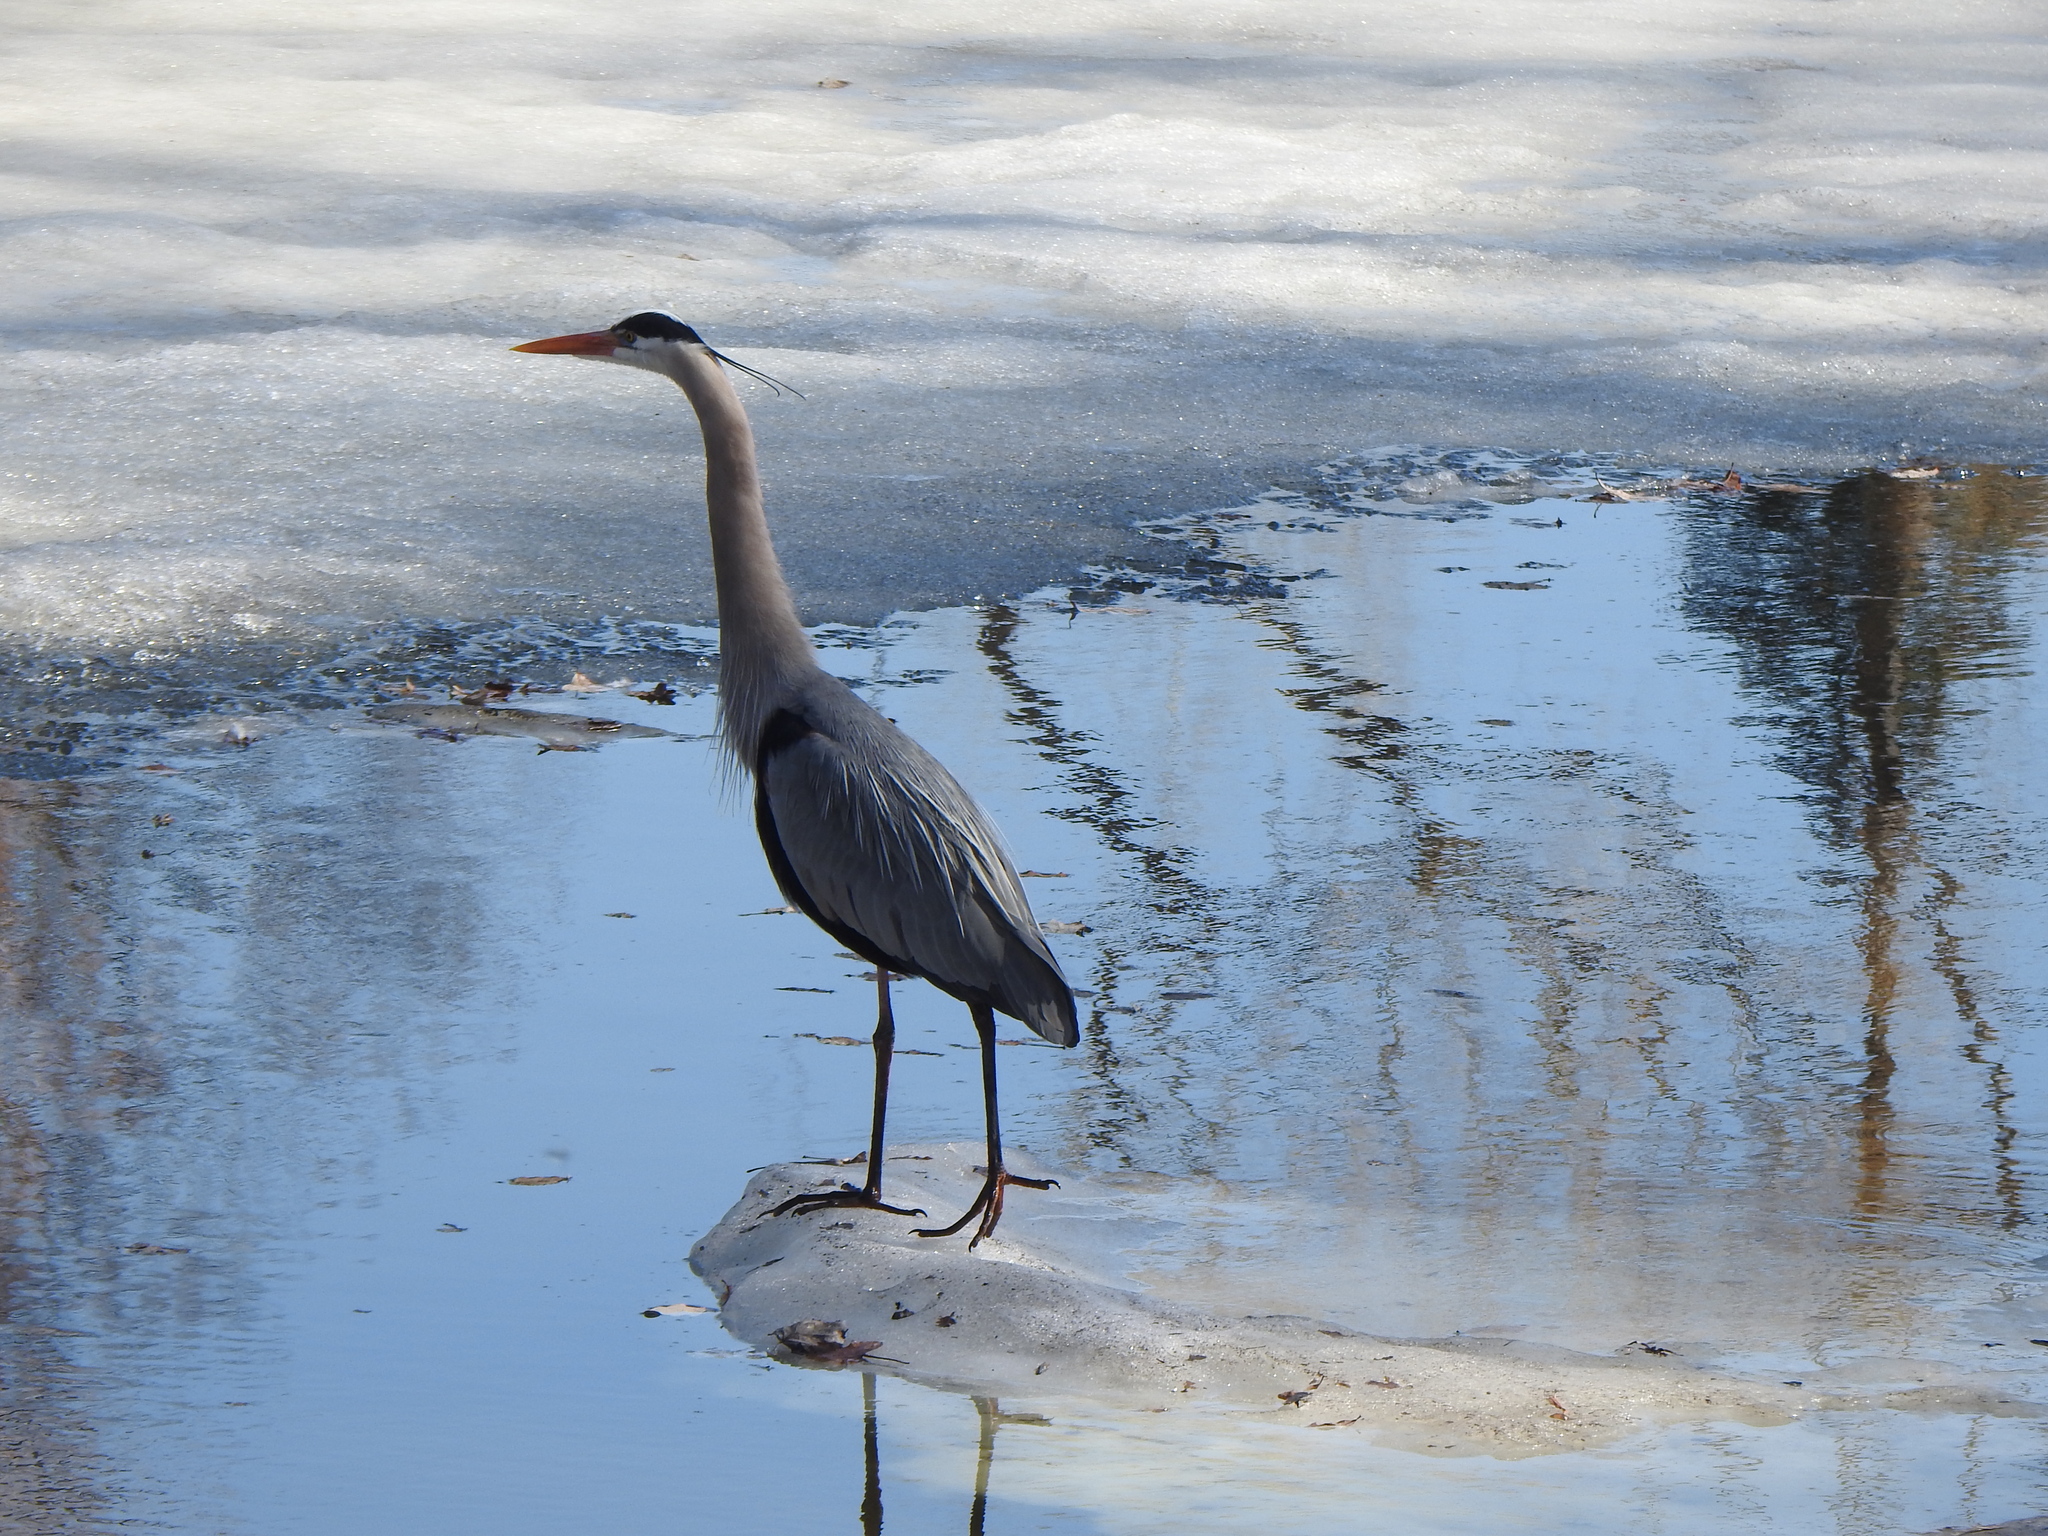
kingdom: Animalia
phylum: Chordata
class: Aves
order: Pelecaniformes
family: Ardeidae
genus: Ardea
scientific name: Ardea herodias
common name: Great blue heron
